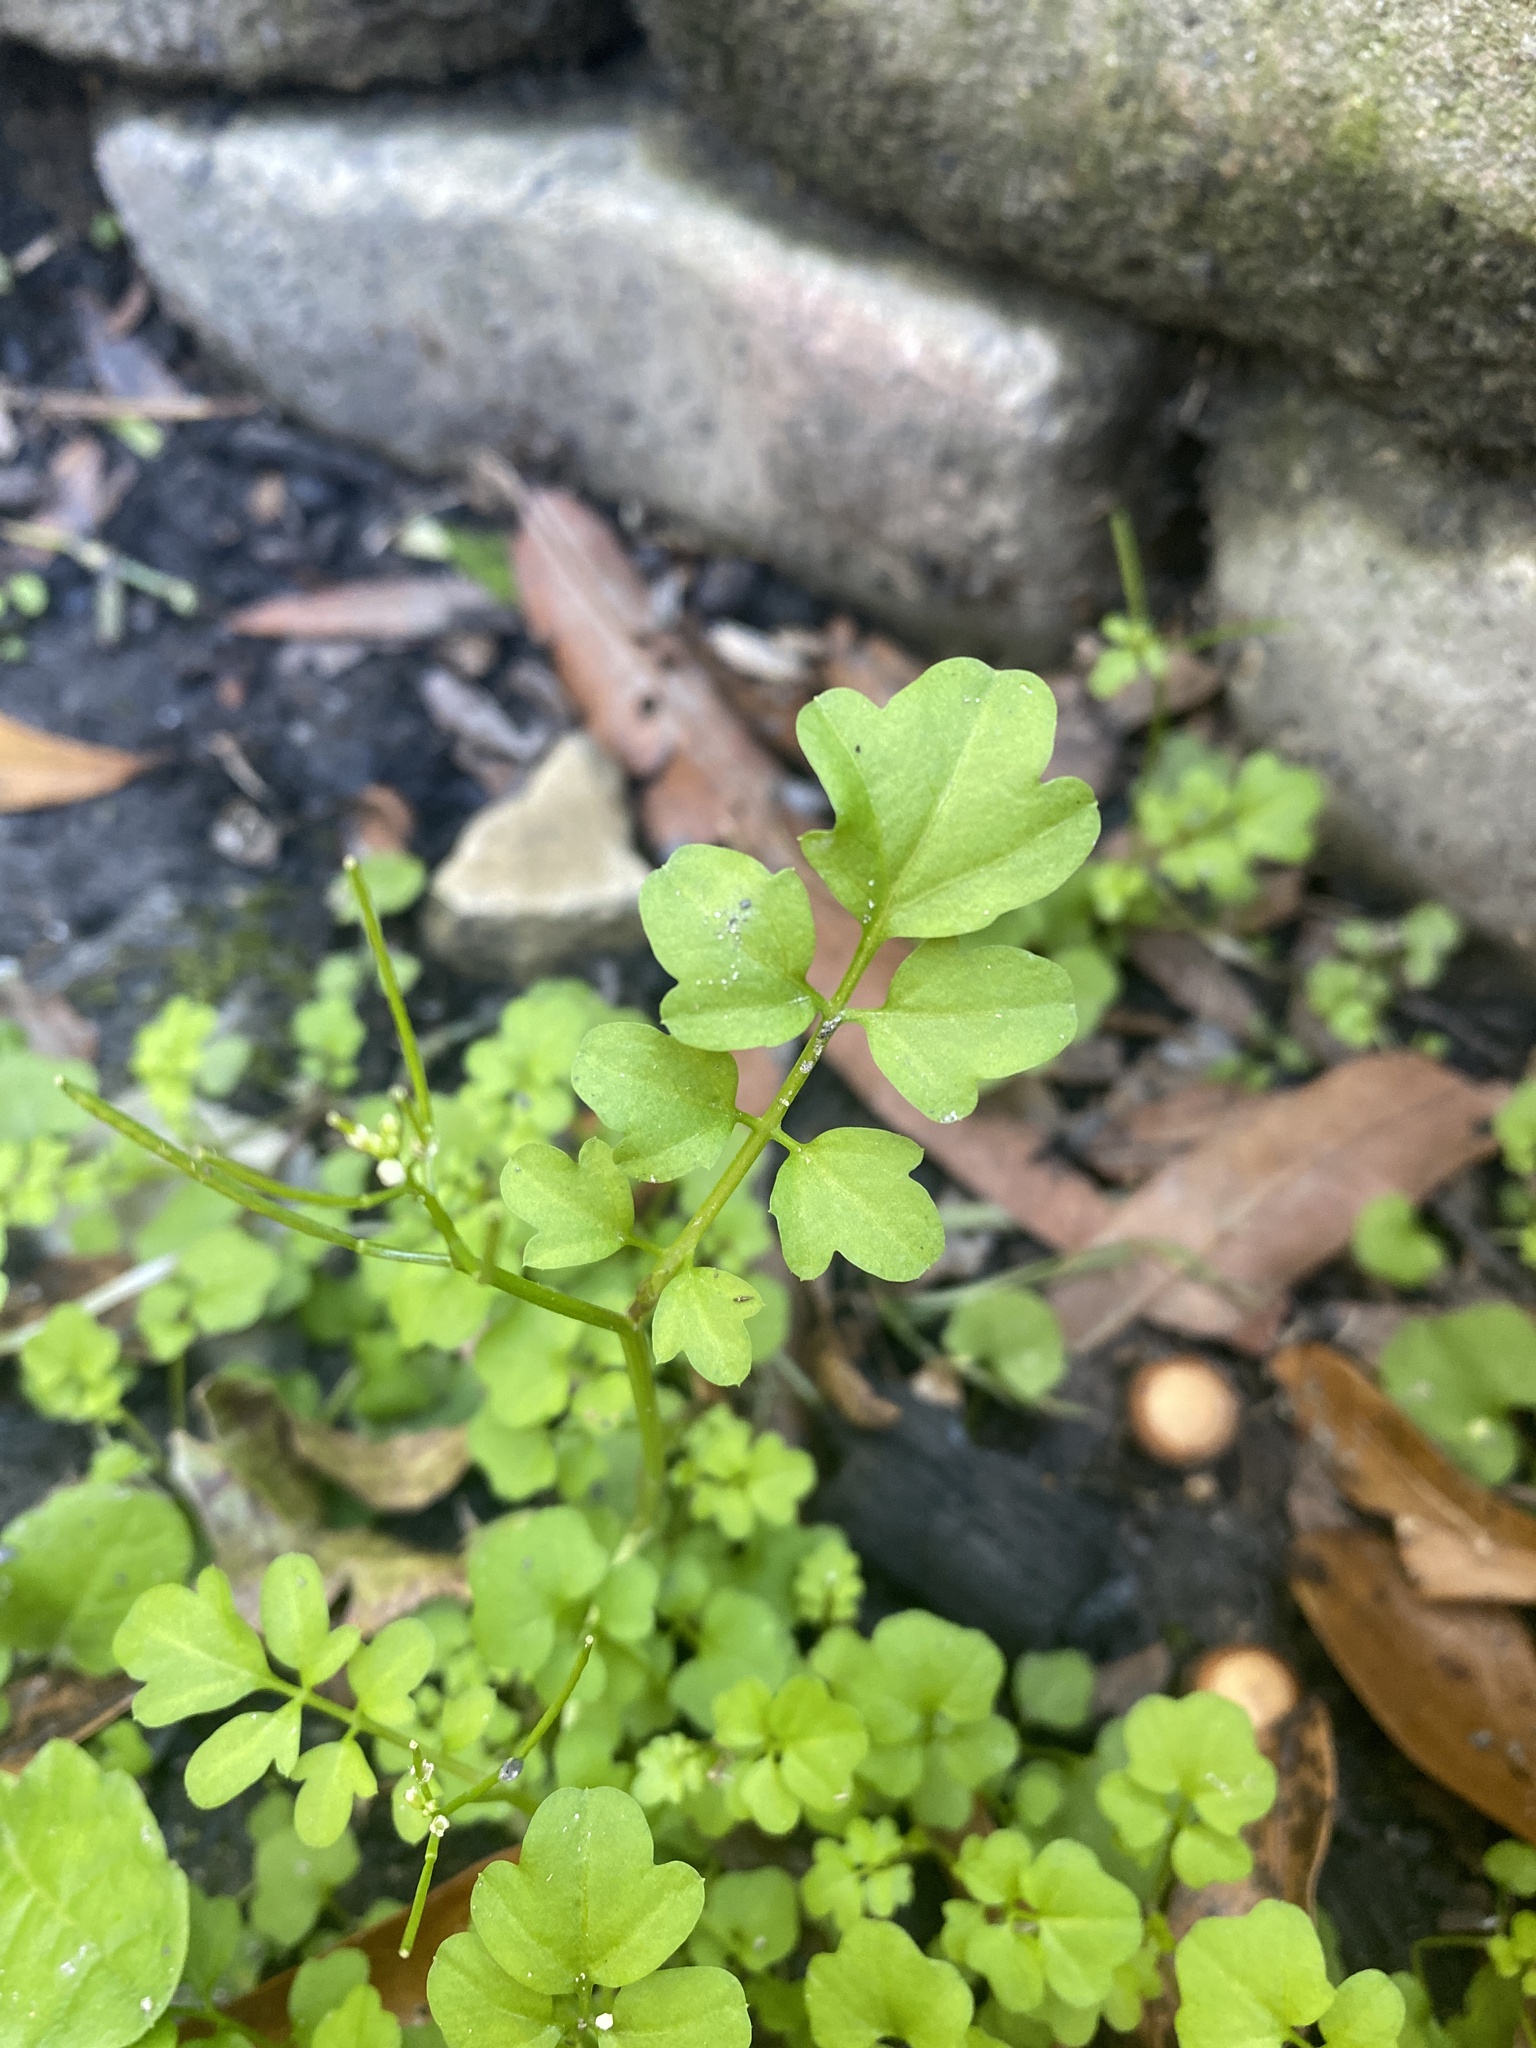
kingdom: Plantae
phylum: Tracheophyta
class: Magnoliopsida
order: Brassicales
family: Brassicaceae
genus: Cardamine
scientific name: Cardamine occulta
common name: Asian wavy bittercress
